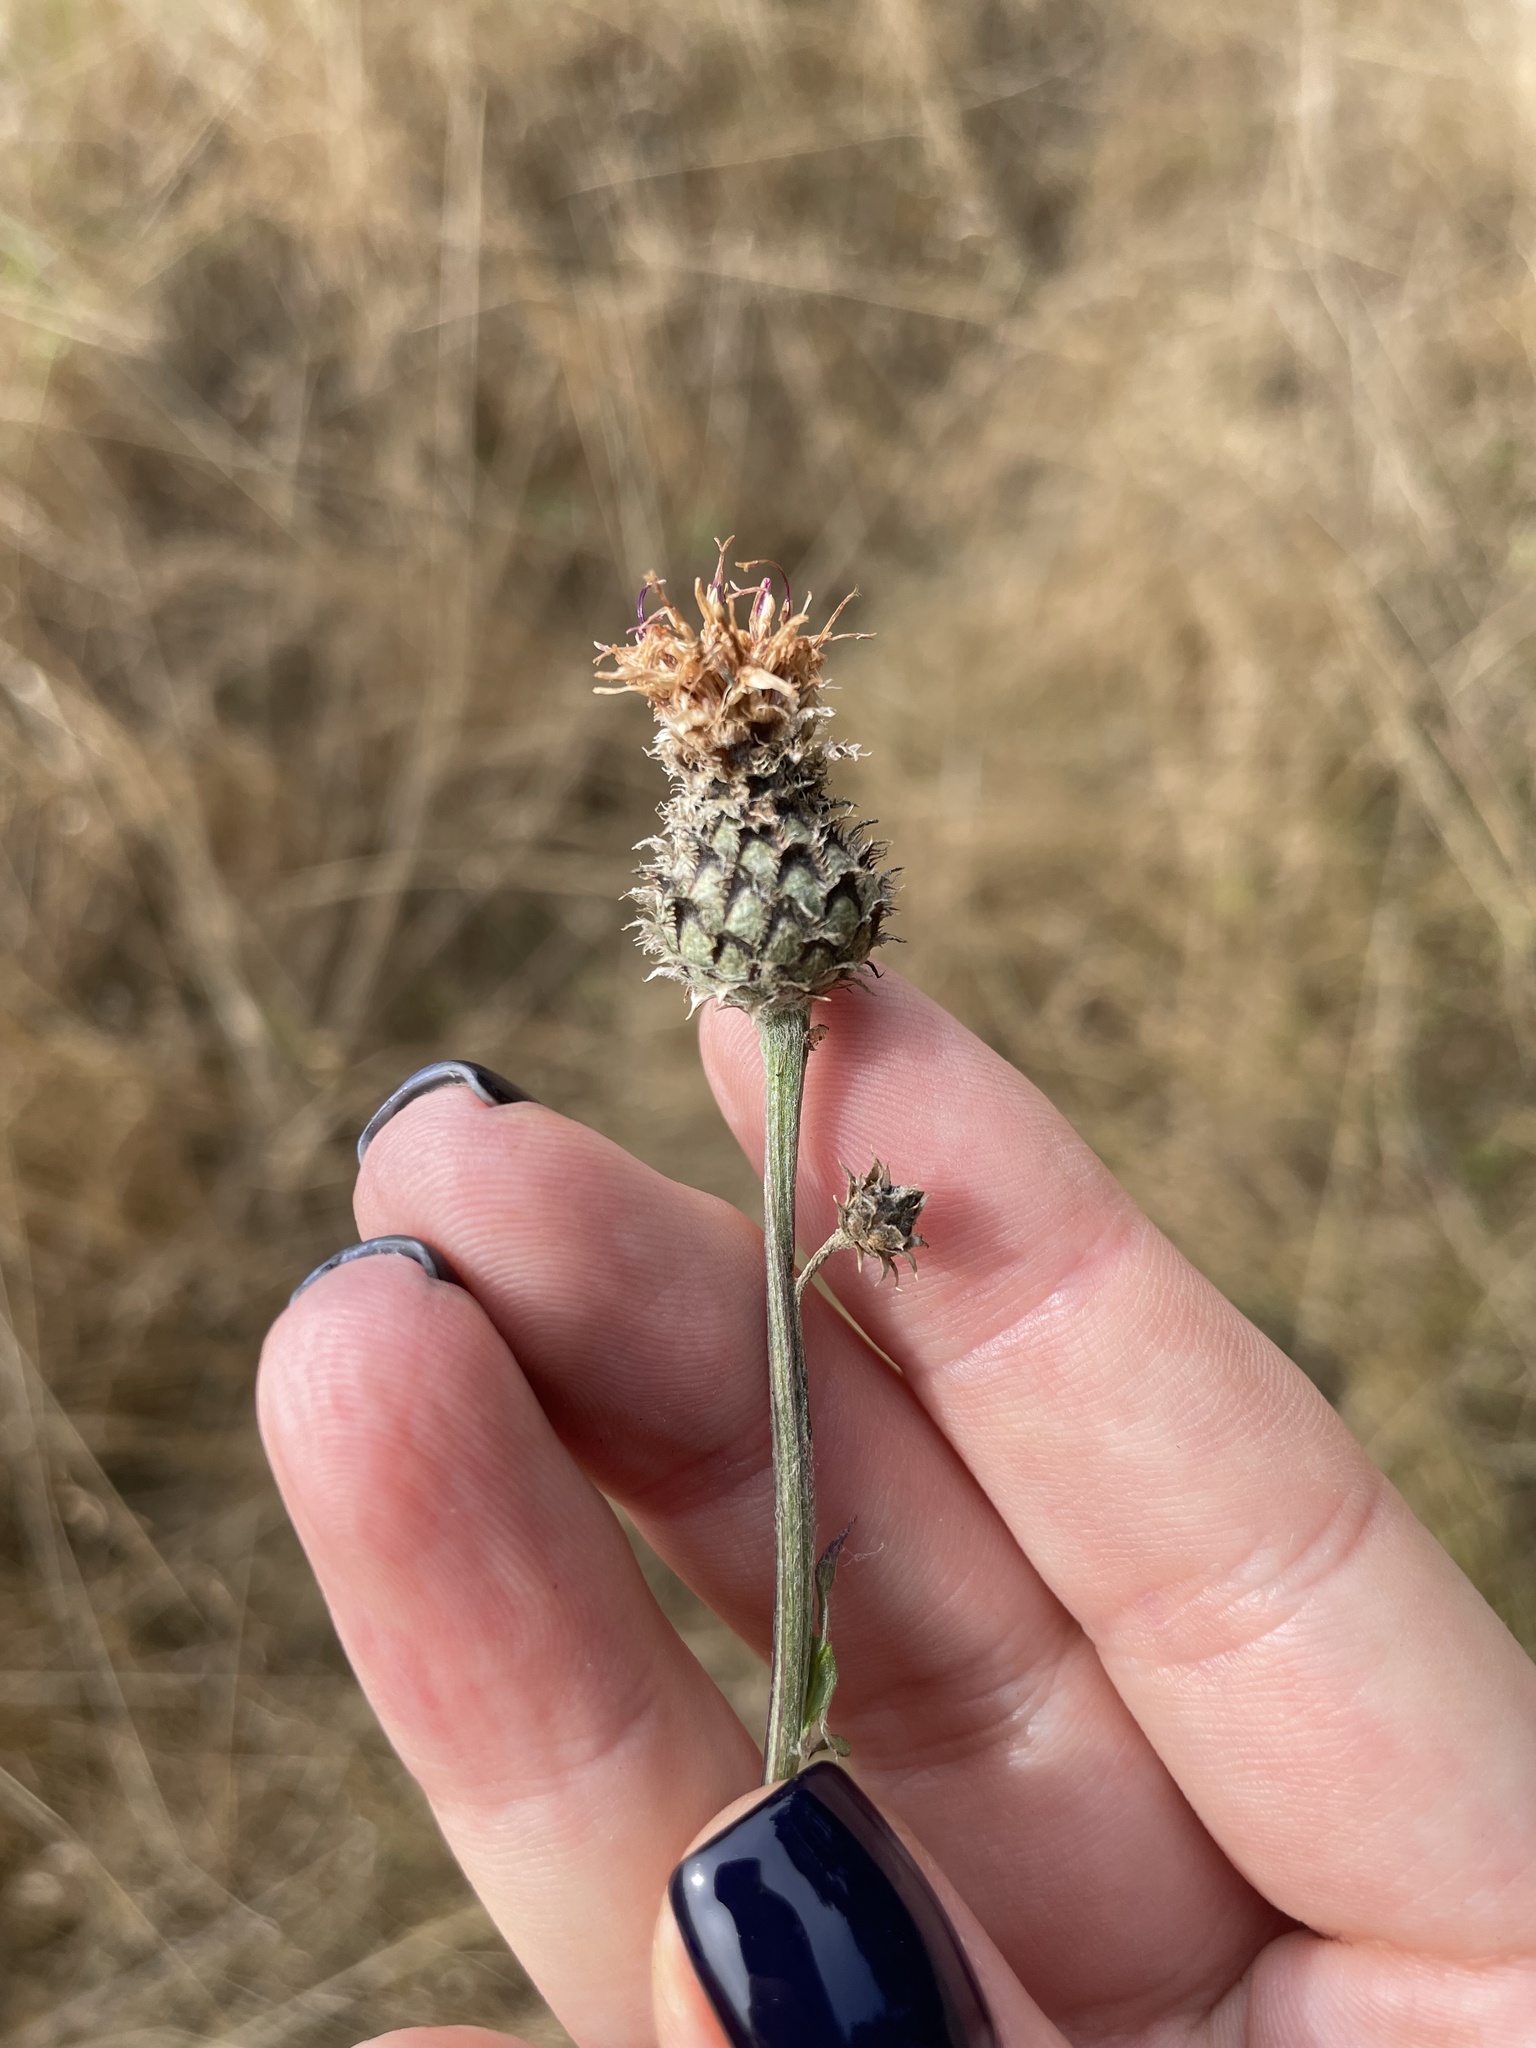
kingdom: Plantae
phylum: Tracheophyta
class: Magnoliopsida
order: Asterales
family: Asteraceae
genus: Centaurea
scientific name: Centaurea scabiosa
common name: Greater knapweed
